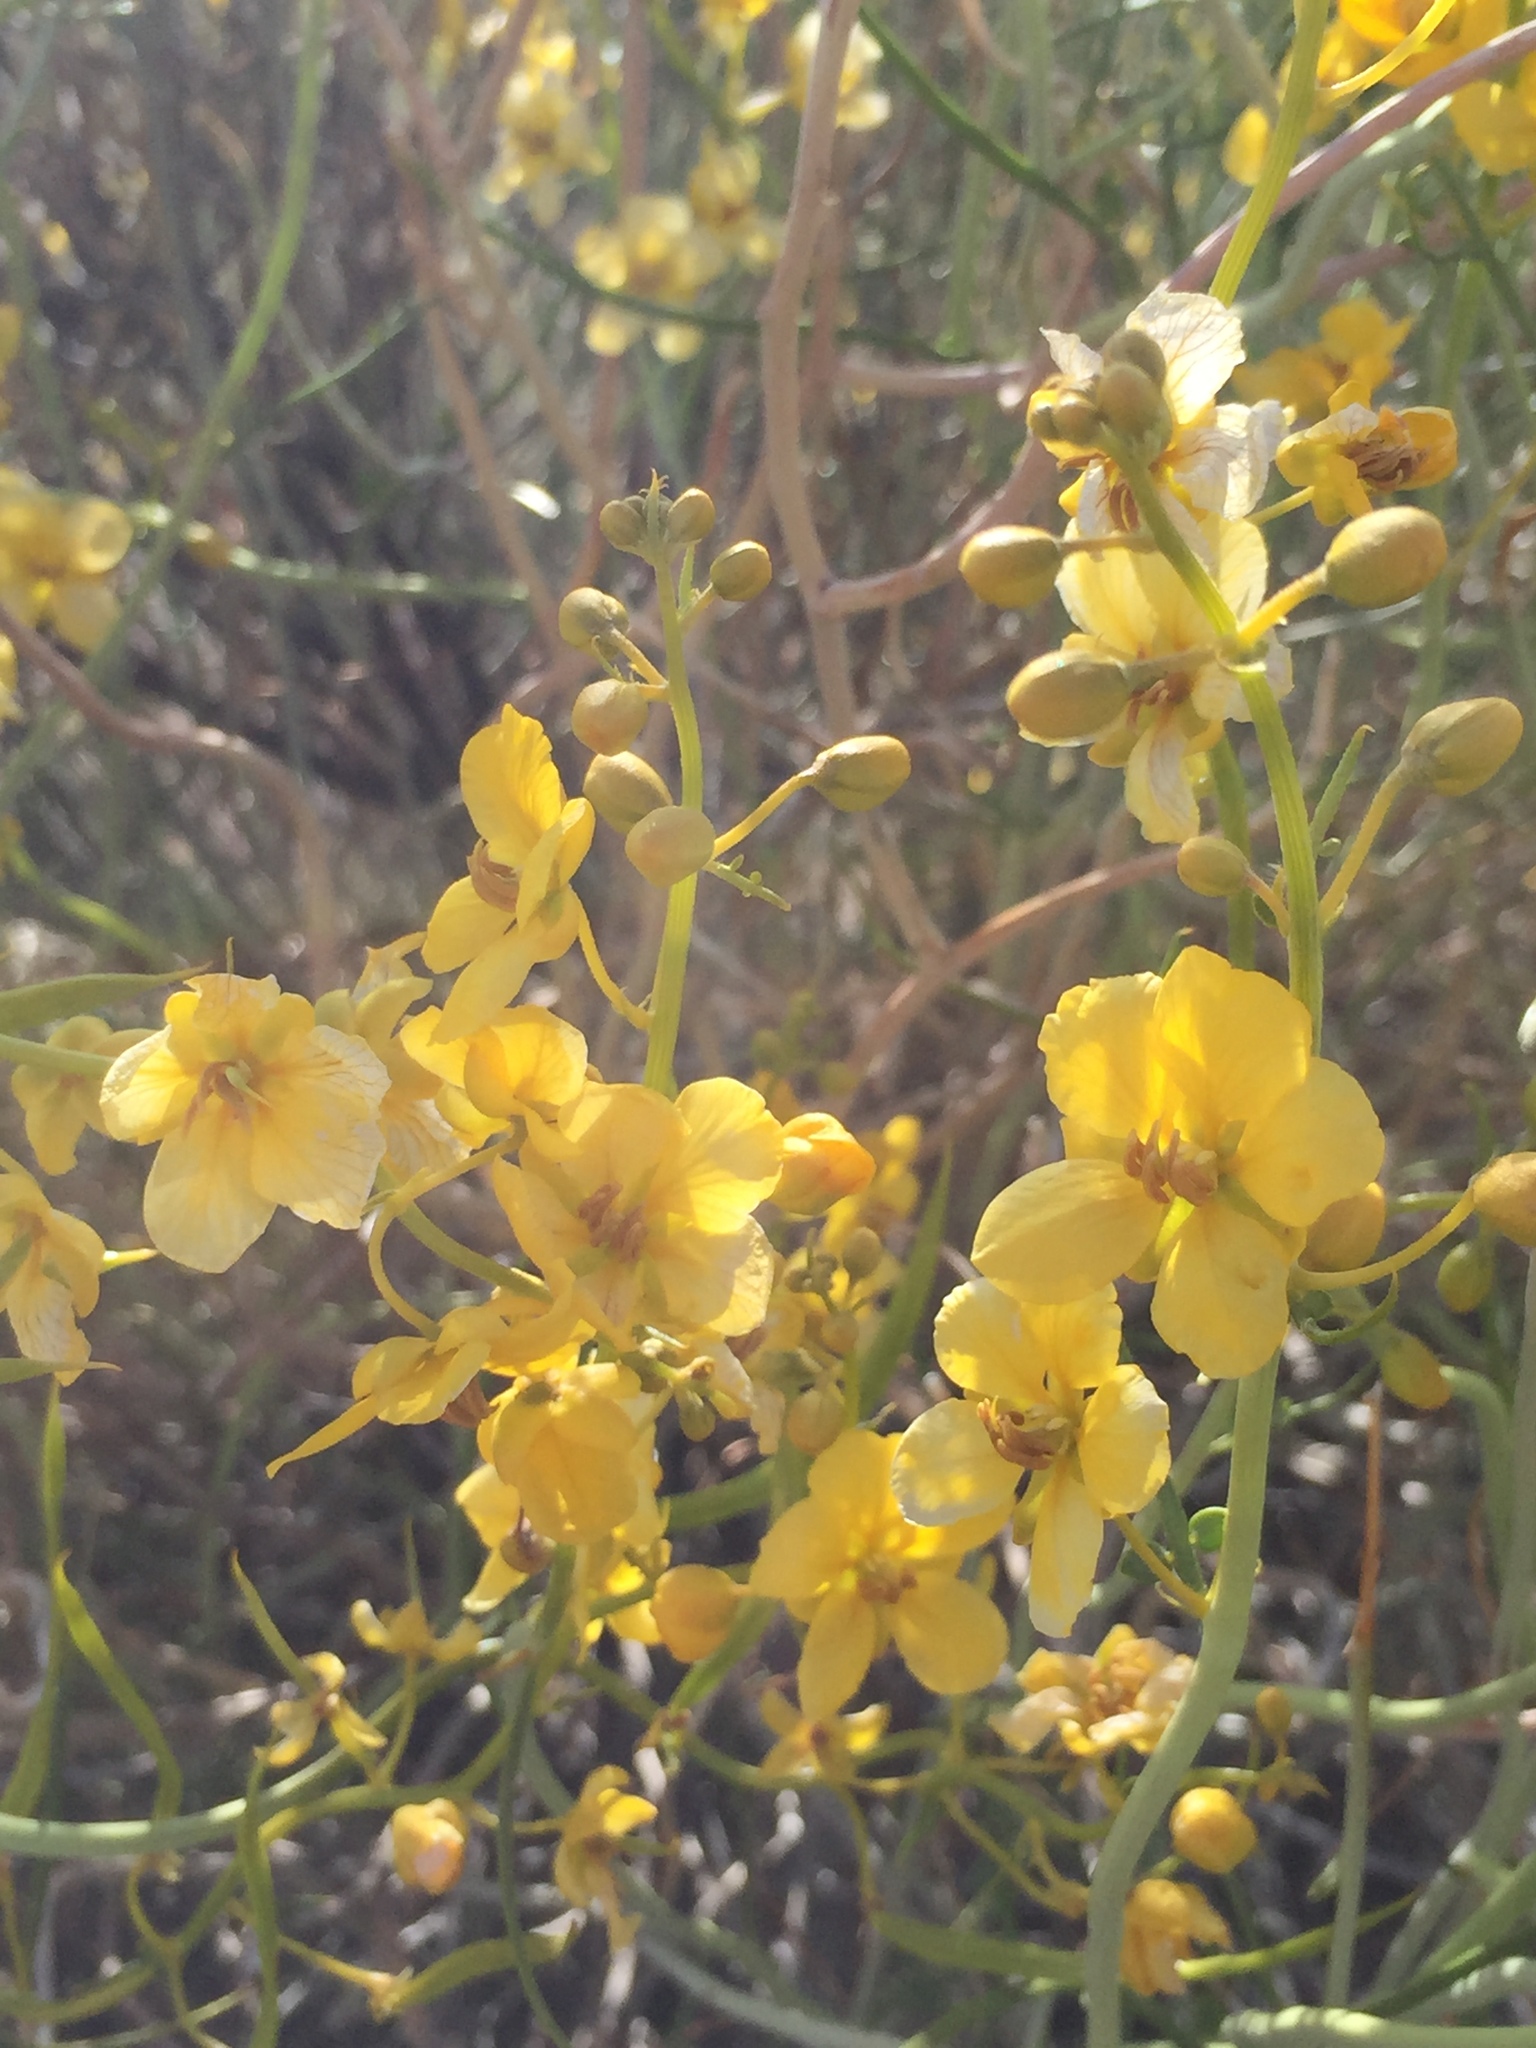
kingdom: Plantae
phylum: Tracheophyta
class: Magnoliopsida
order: Fabales
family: Fabaceae
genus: Senna
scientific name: Senna armata
